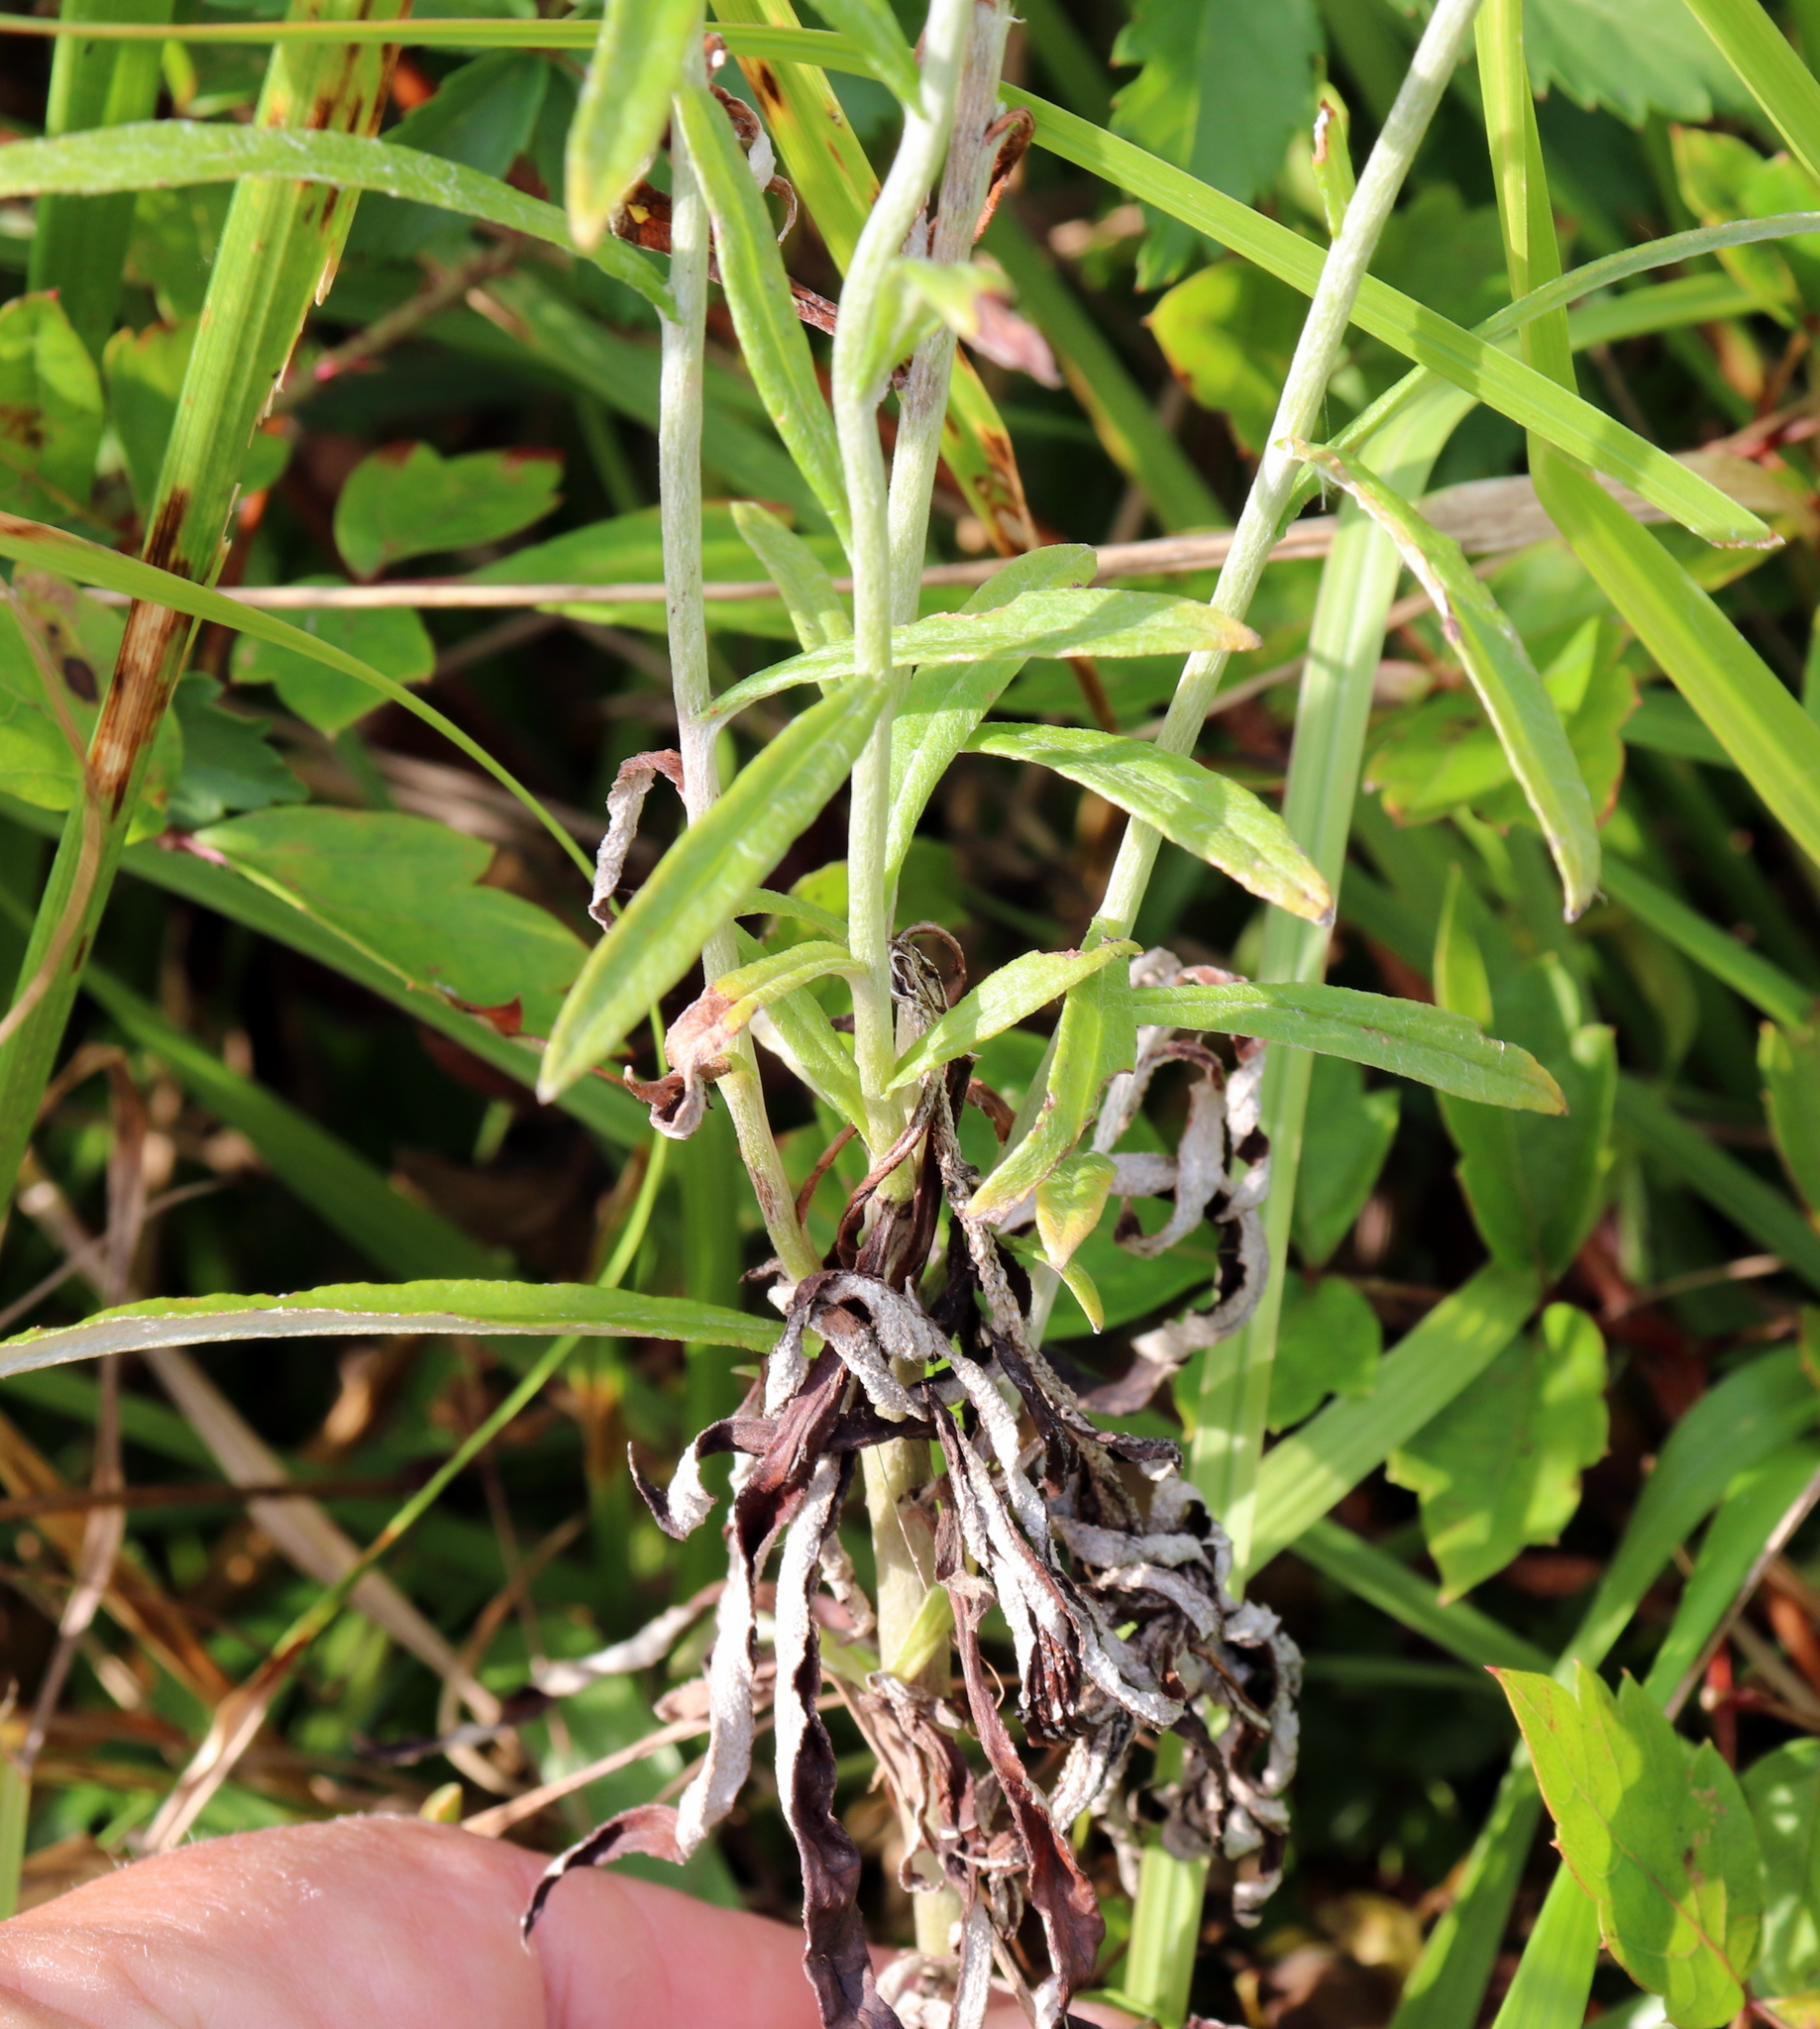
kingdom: Plantae
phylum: Tracheophyta
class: Magnoliopsida
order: Asterales
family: Asteraceae
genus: Pseudognaphalium
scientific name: Pseudognaphalium obtusifolium
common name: Eastern rabbit-tobacco
